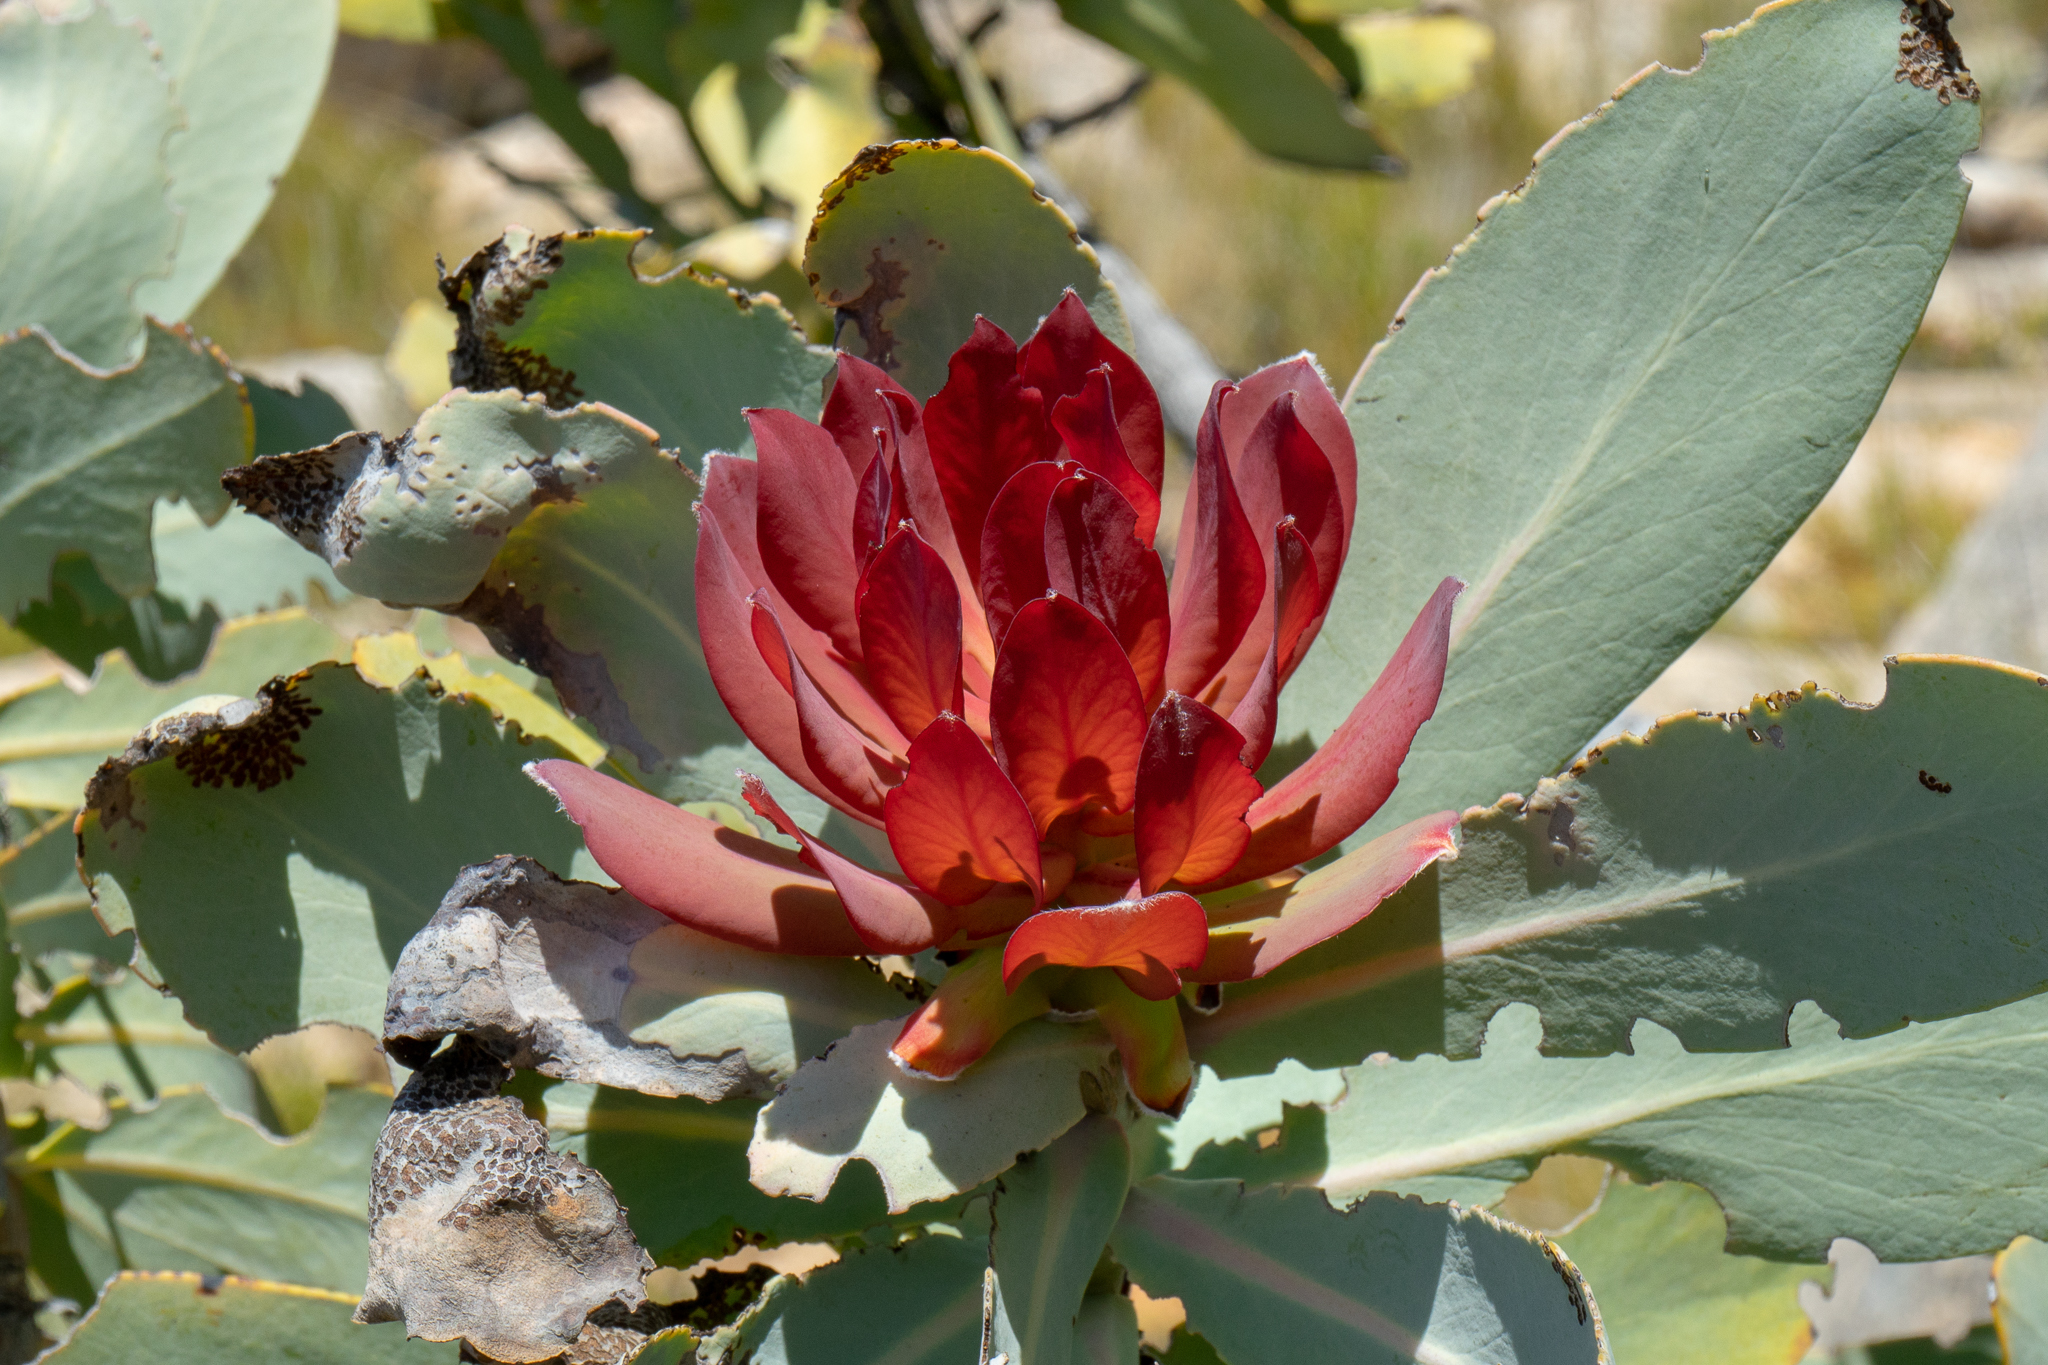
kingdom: Plantae
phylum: Tracheophyta
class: Magnoliopsida
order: Proteales
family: Proteaceae
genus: Protea
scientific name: Protea nitida
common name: Tree protea
